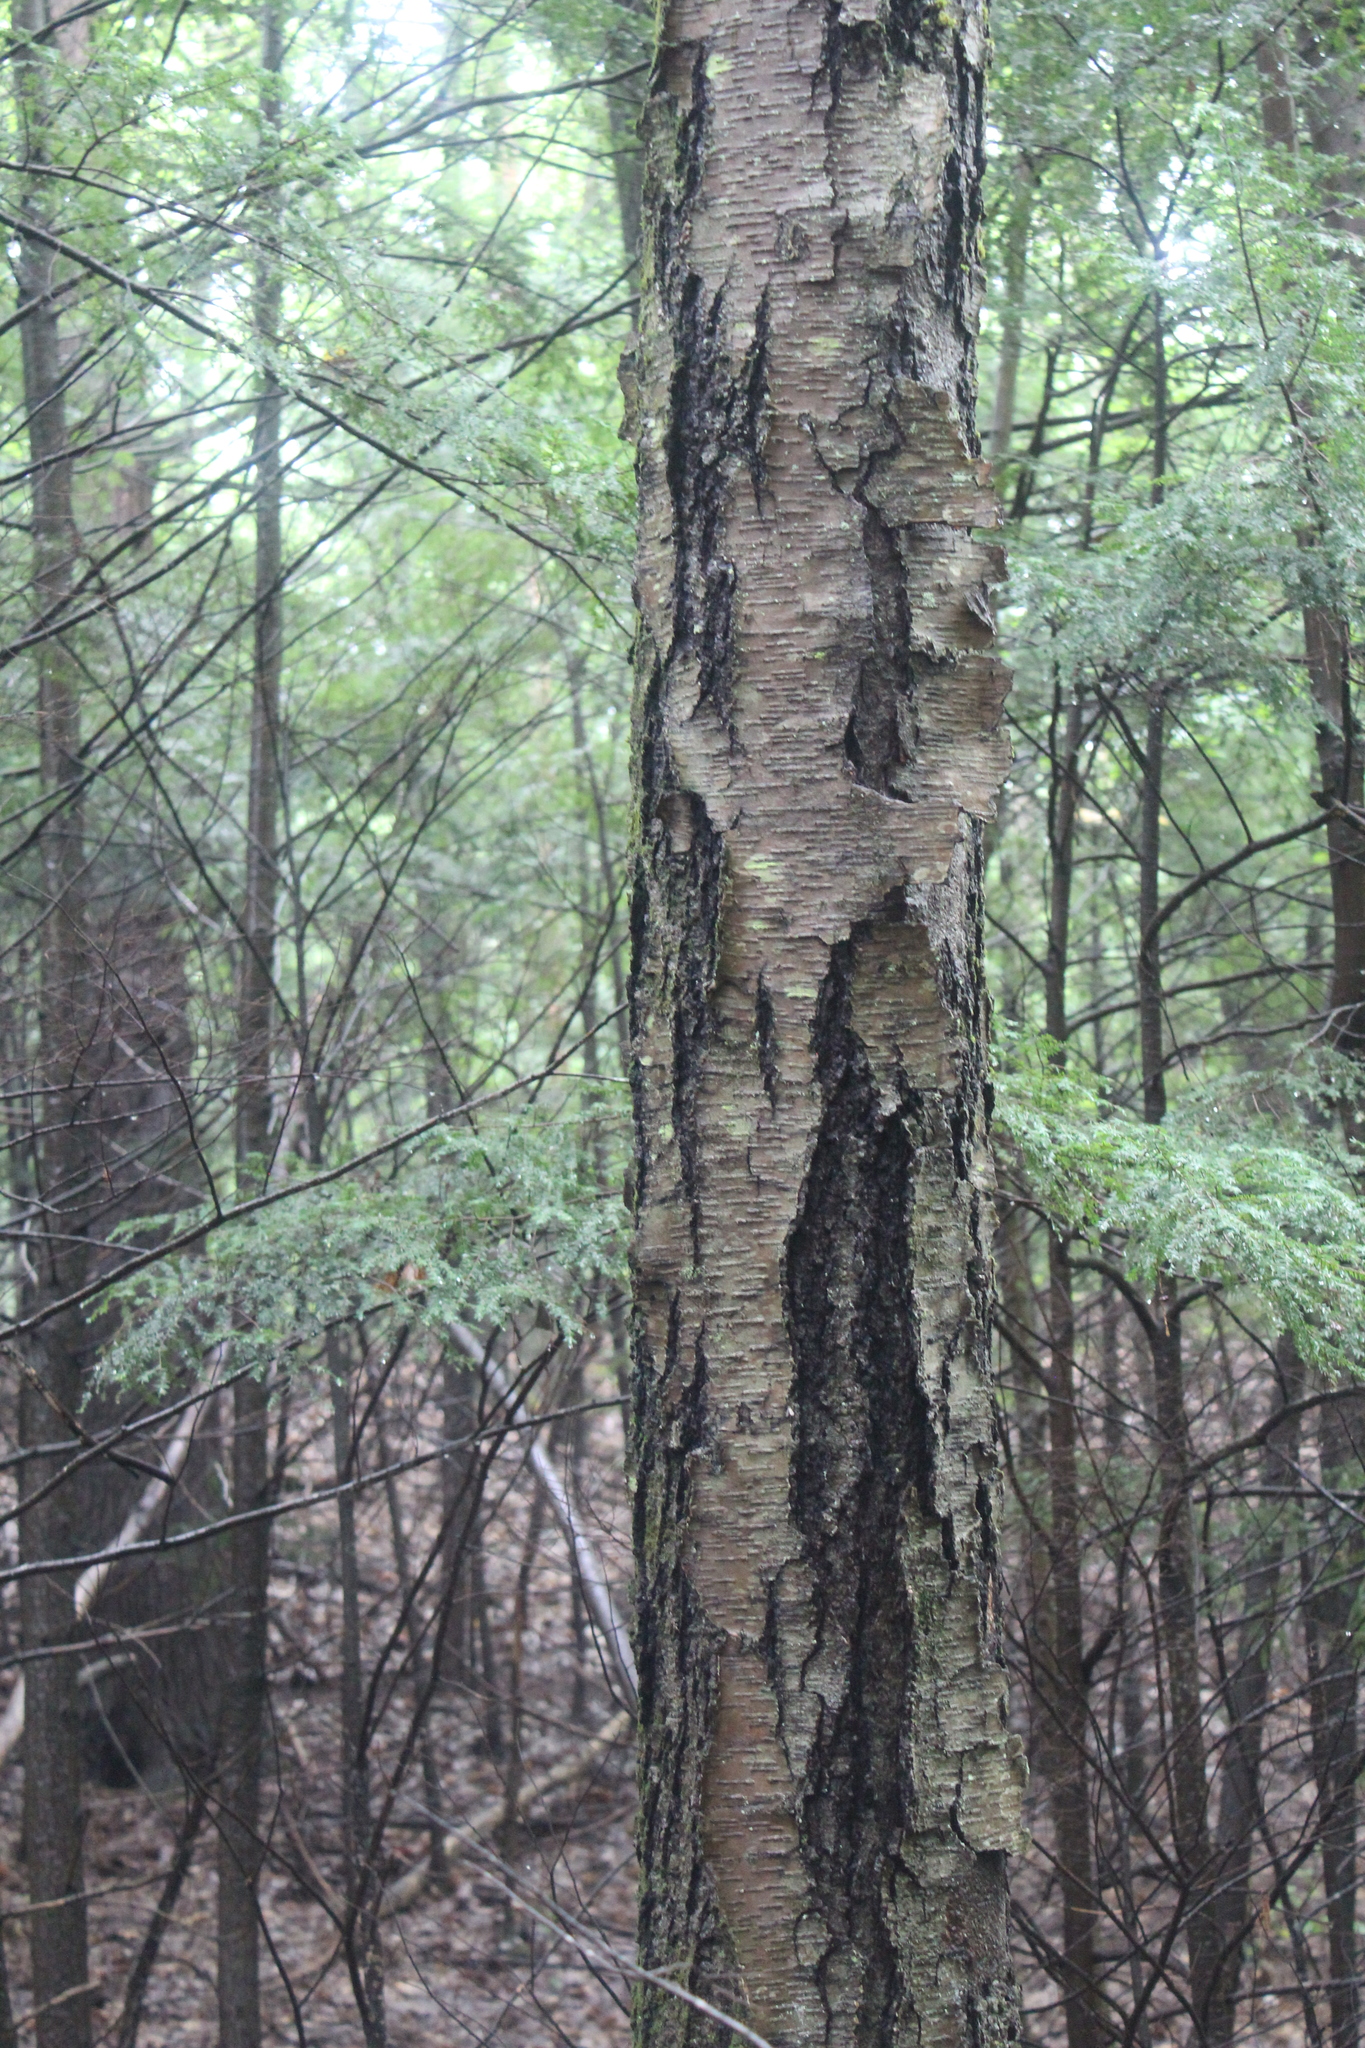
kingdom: Plantae
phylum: Tracheophyta
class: Magnoliopsida
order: Fagales
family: Betulaceae
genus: Betula
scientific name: Betula lenta
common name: Black birch
